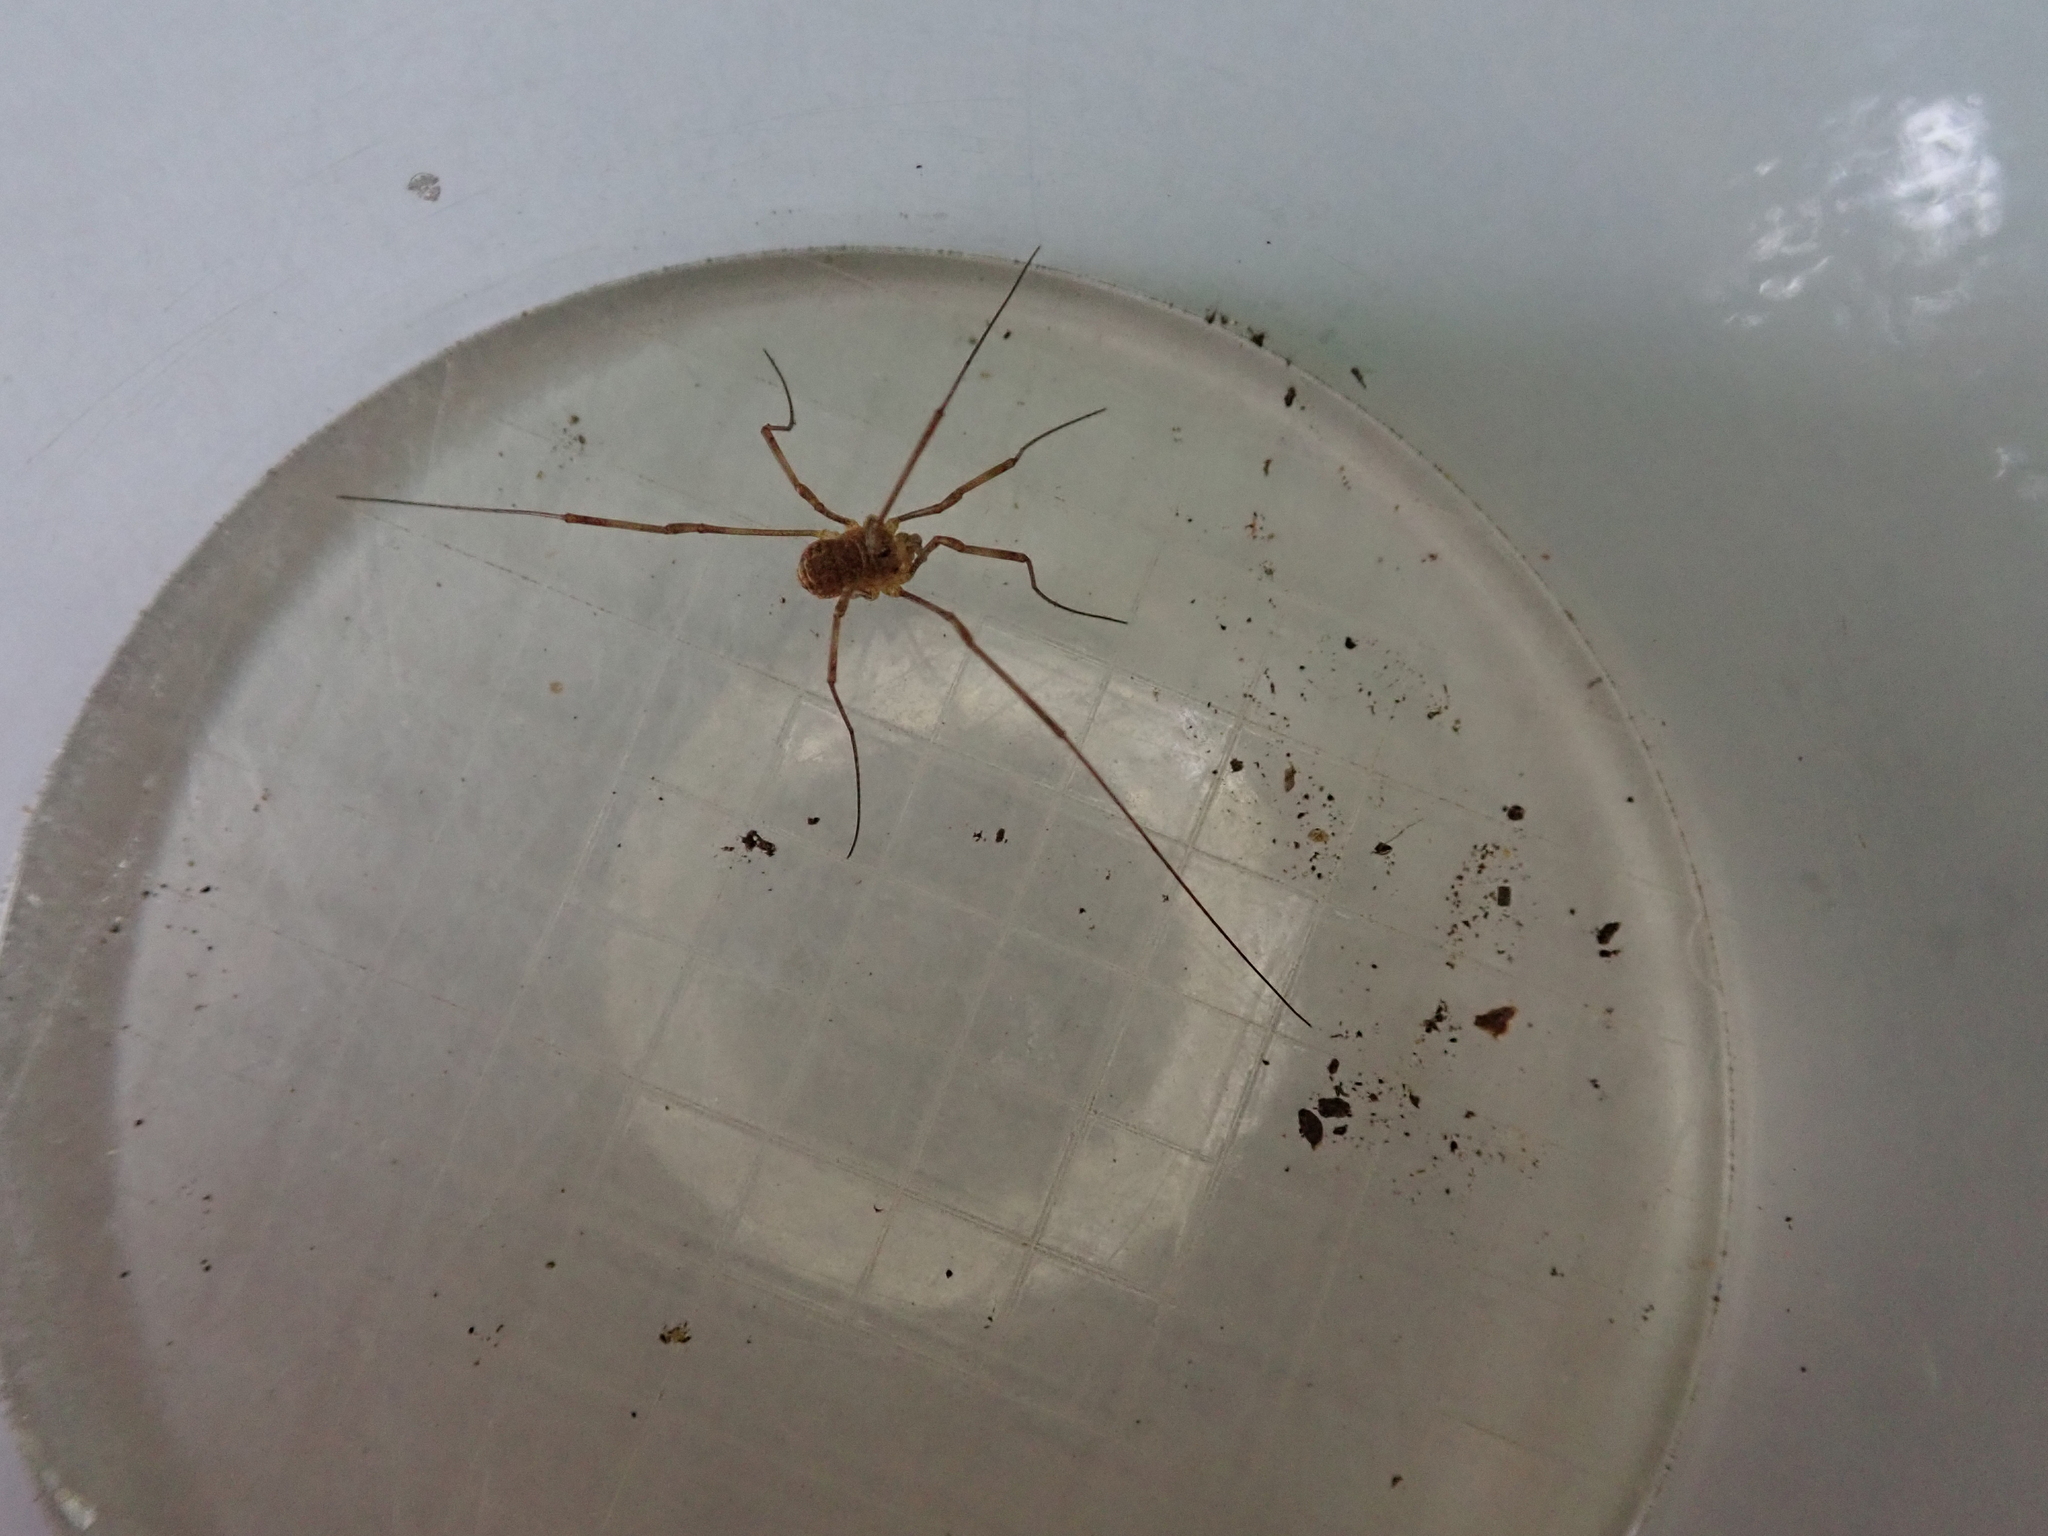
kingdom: Animalia
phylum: Arthropoda
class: Arachnida
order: Opiliones
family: Phalangiidae
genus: Rilaena
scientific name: Rilaena triangularis
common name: Spring harvestman
